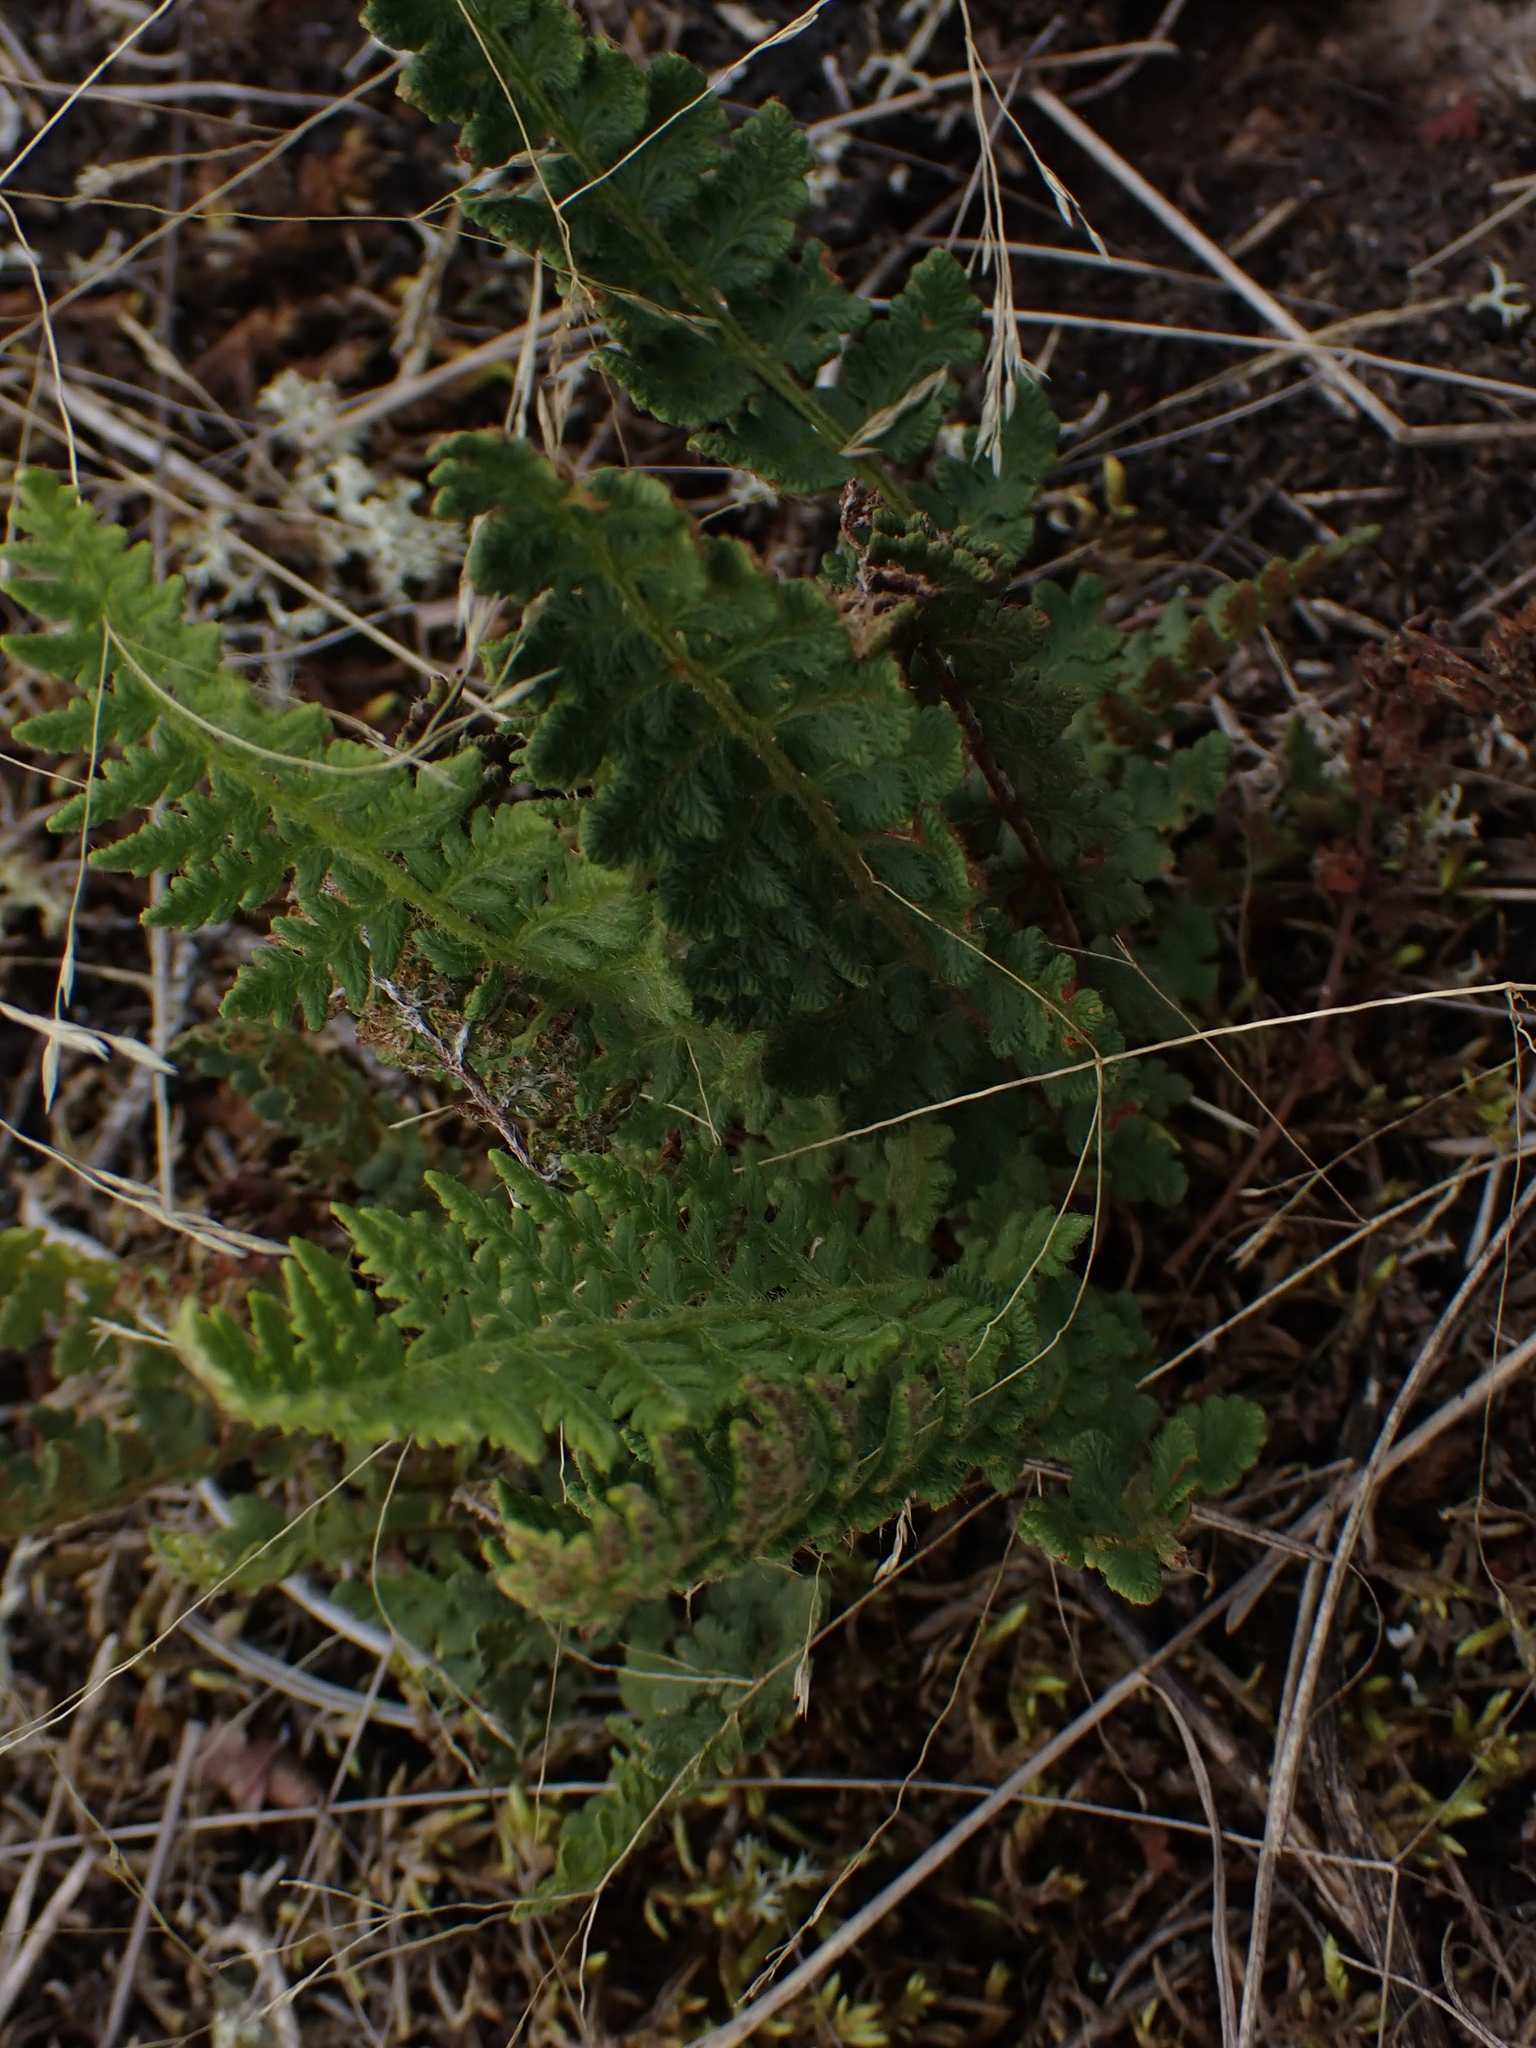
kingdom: Plantae
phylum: Tracheophyta
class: Polypodiopsida
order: Polypodiales
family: Woodsiaceae
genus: Woodsia
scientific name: Woodsia ilvensis
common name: Fragrant woodsia
